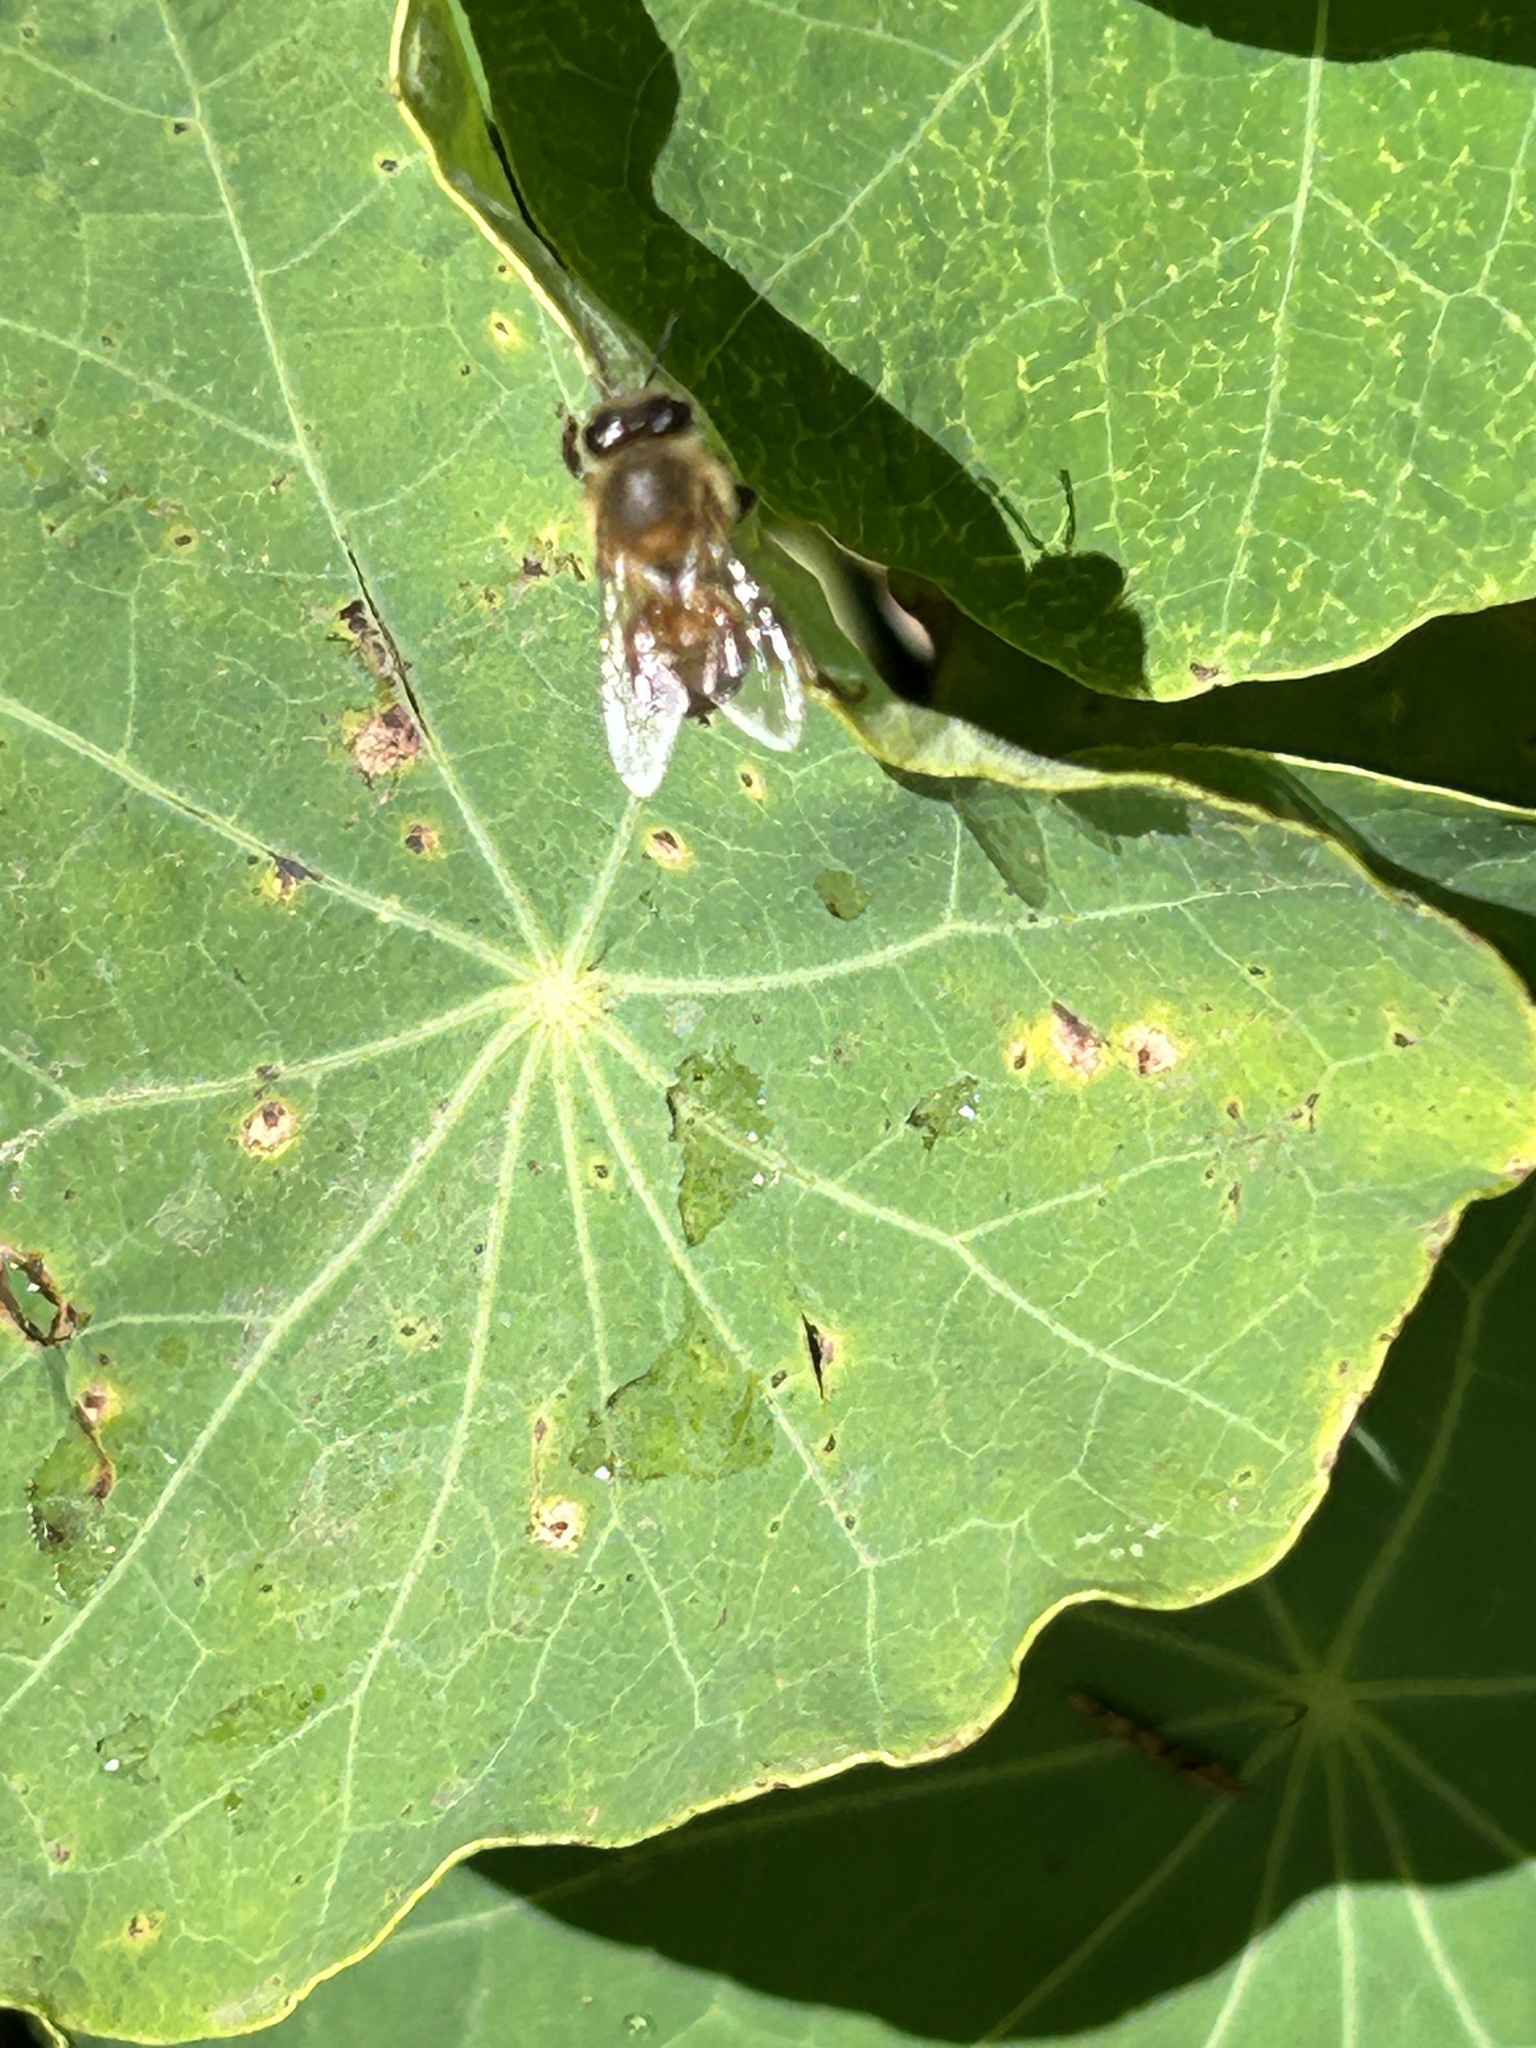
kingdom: Animalia
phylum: Arthropoda
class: Insecta
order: Hymenoptera
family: Apidae
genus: Apis
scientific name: Apis mellifera
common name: Honey bee
